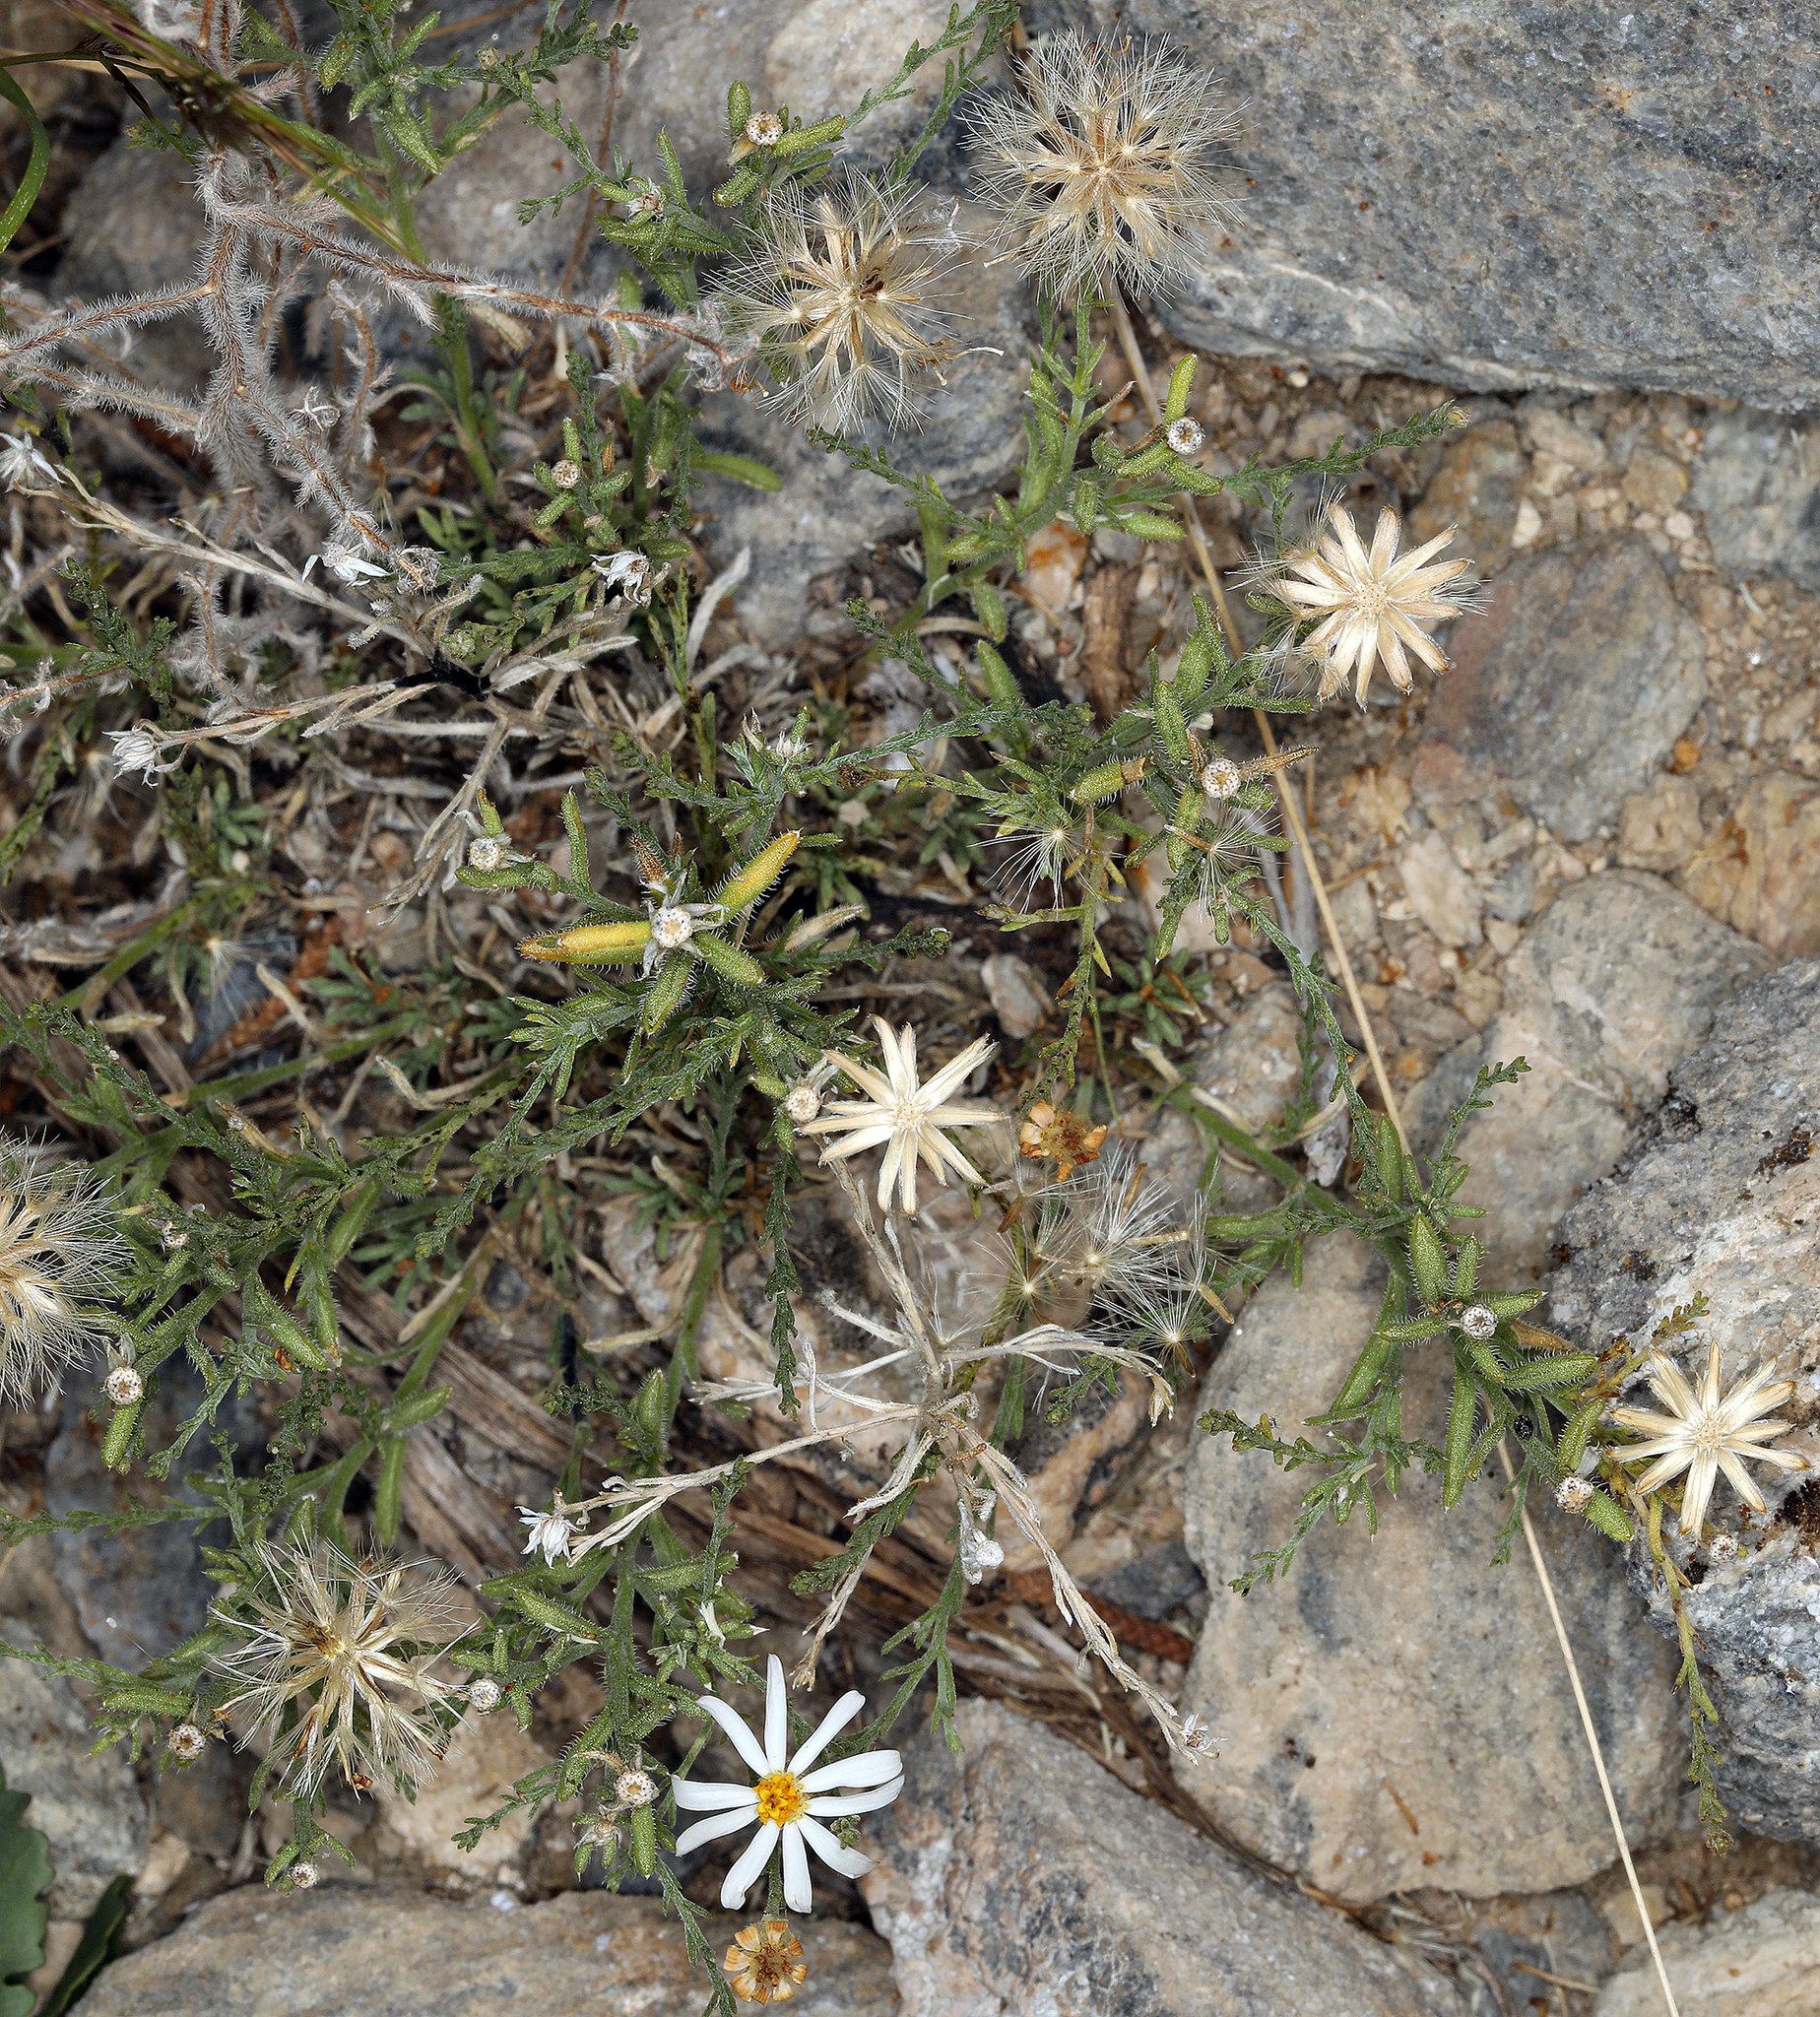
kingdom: Plantae
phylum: Tracheophyta
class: Magnoliopsida
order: Asterales
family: Asteraceae
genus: Chaetopappa
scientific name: Chaetopappa ericoides
